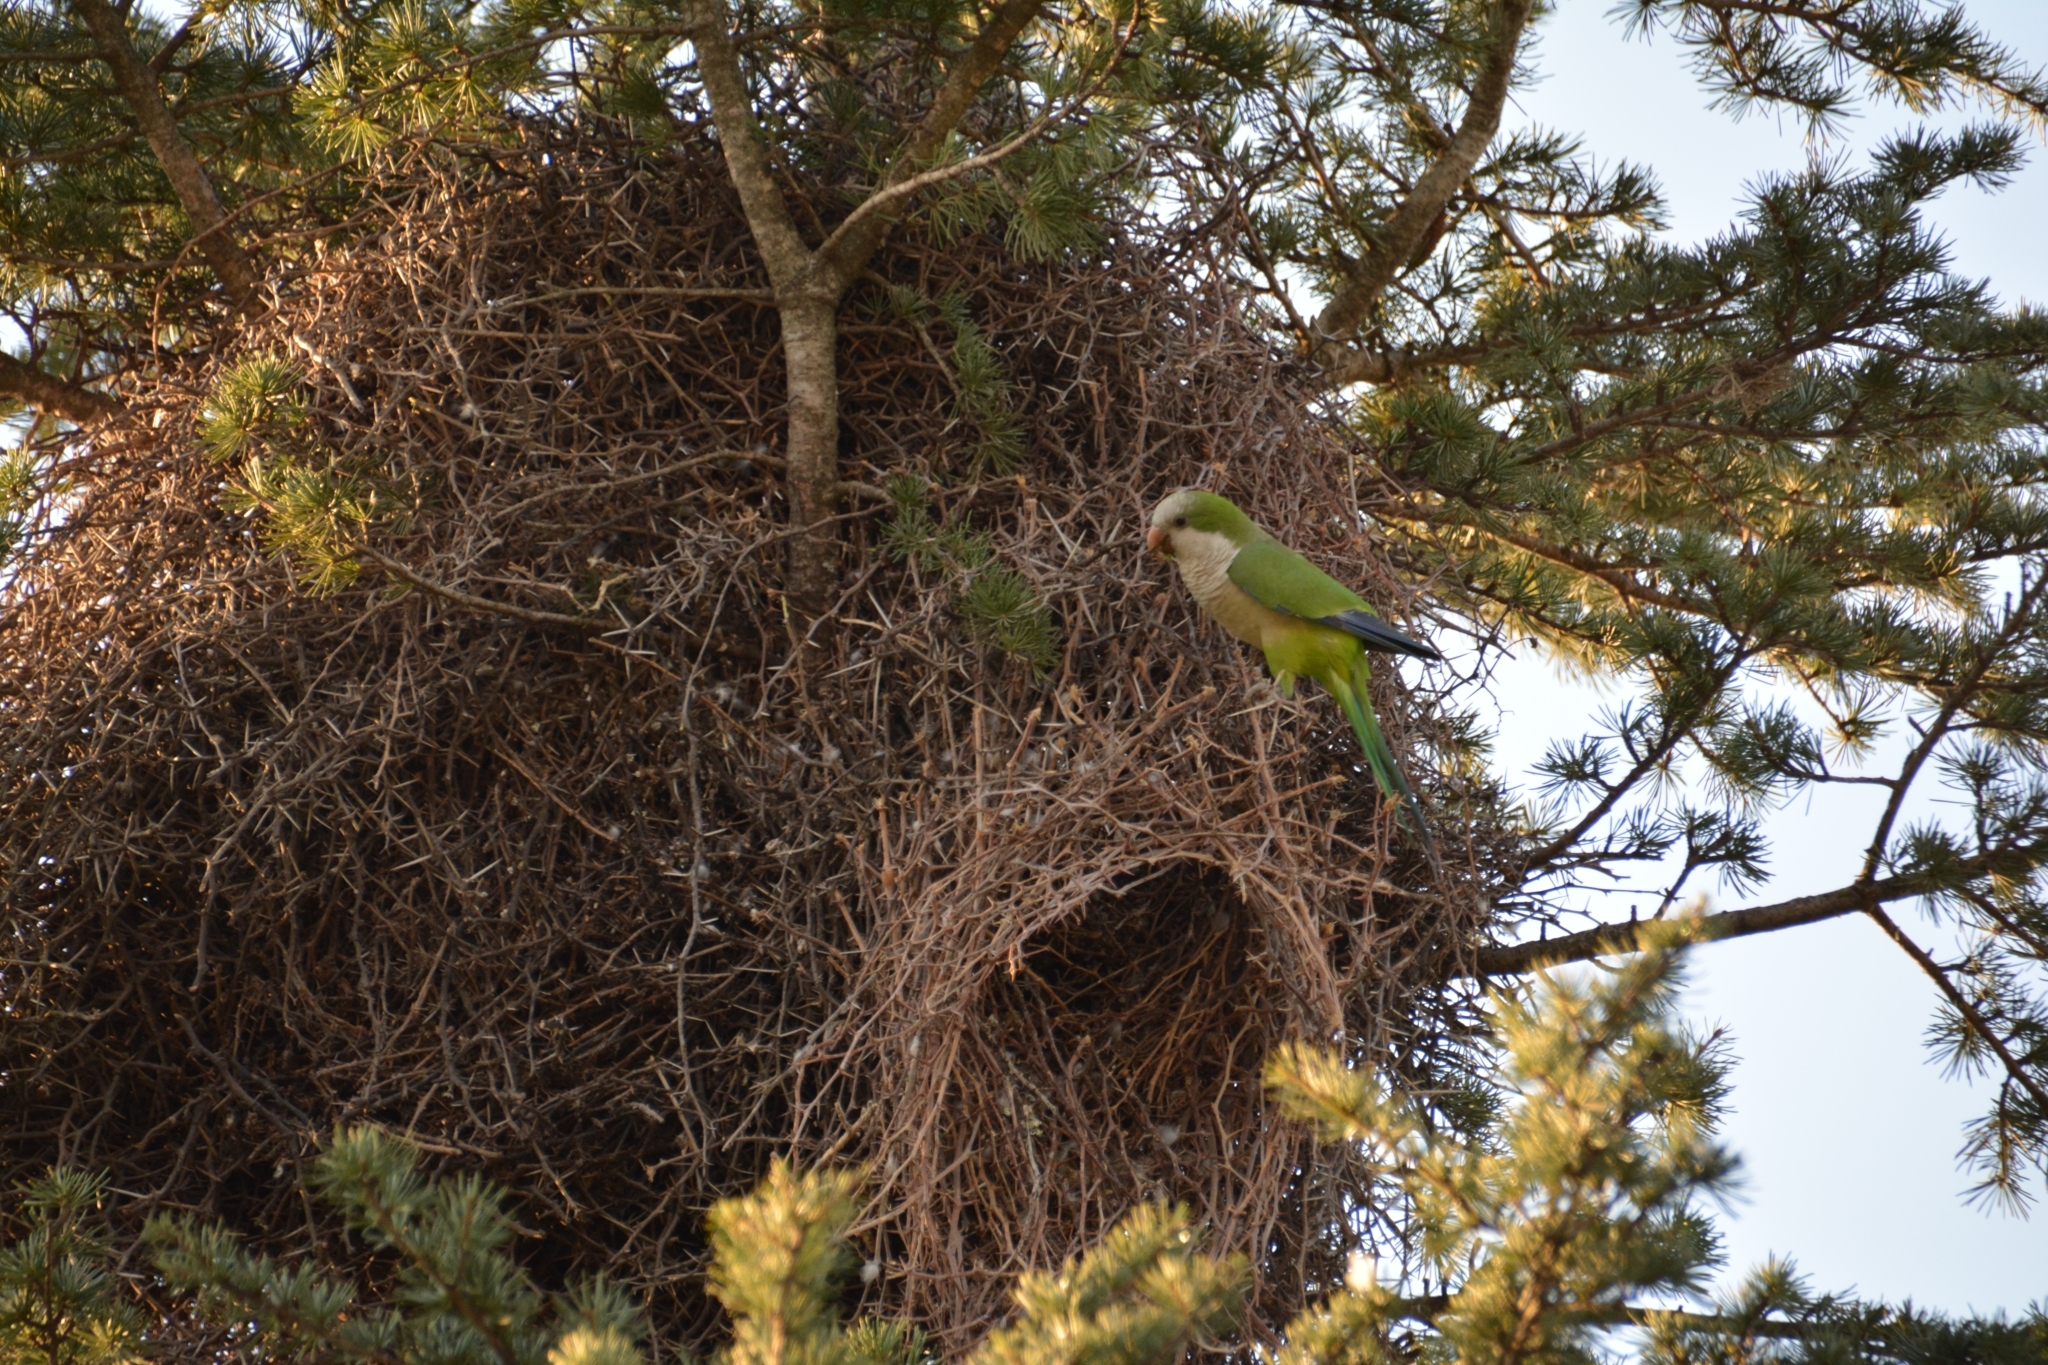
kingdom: Animalia
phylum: Chordata
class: Aves
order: Psittaciformes
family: Psittacidae
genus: Myiopsitta
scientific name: Myiopsitta monachus
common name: Monk parakeet
